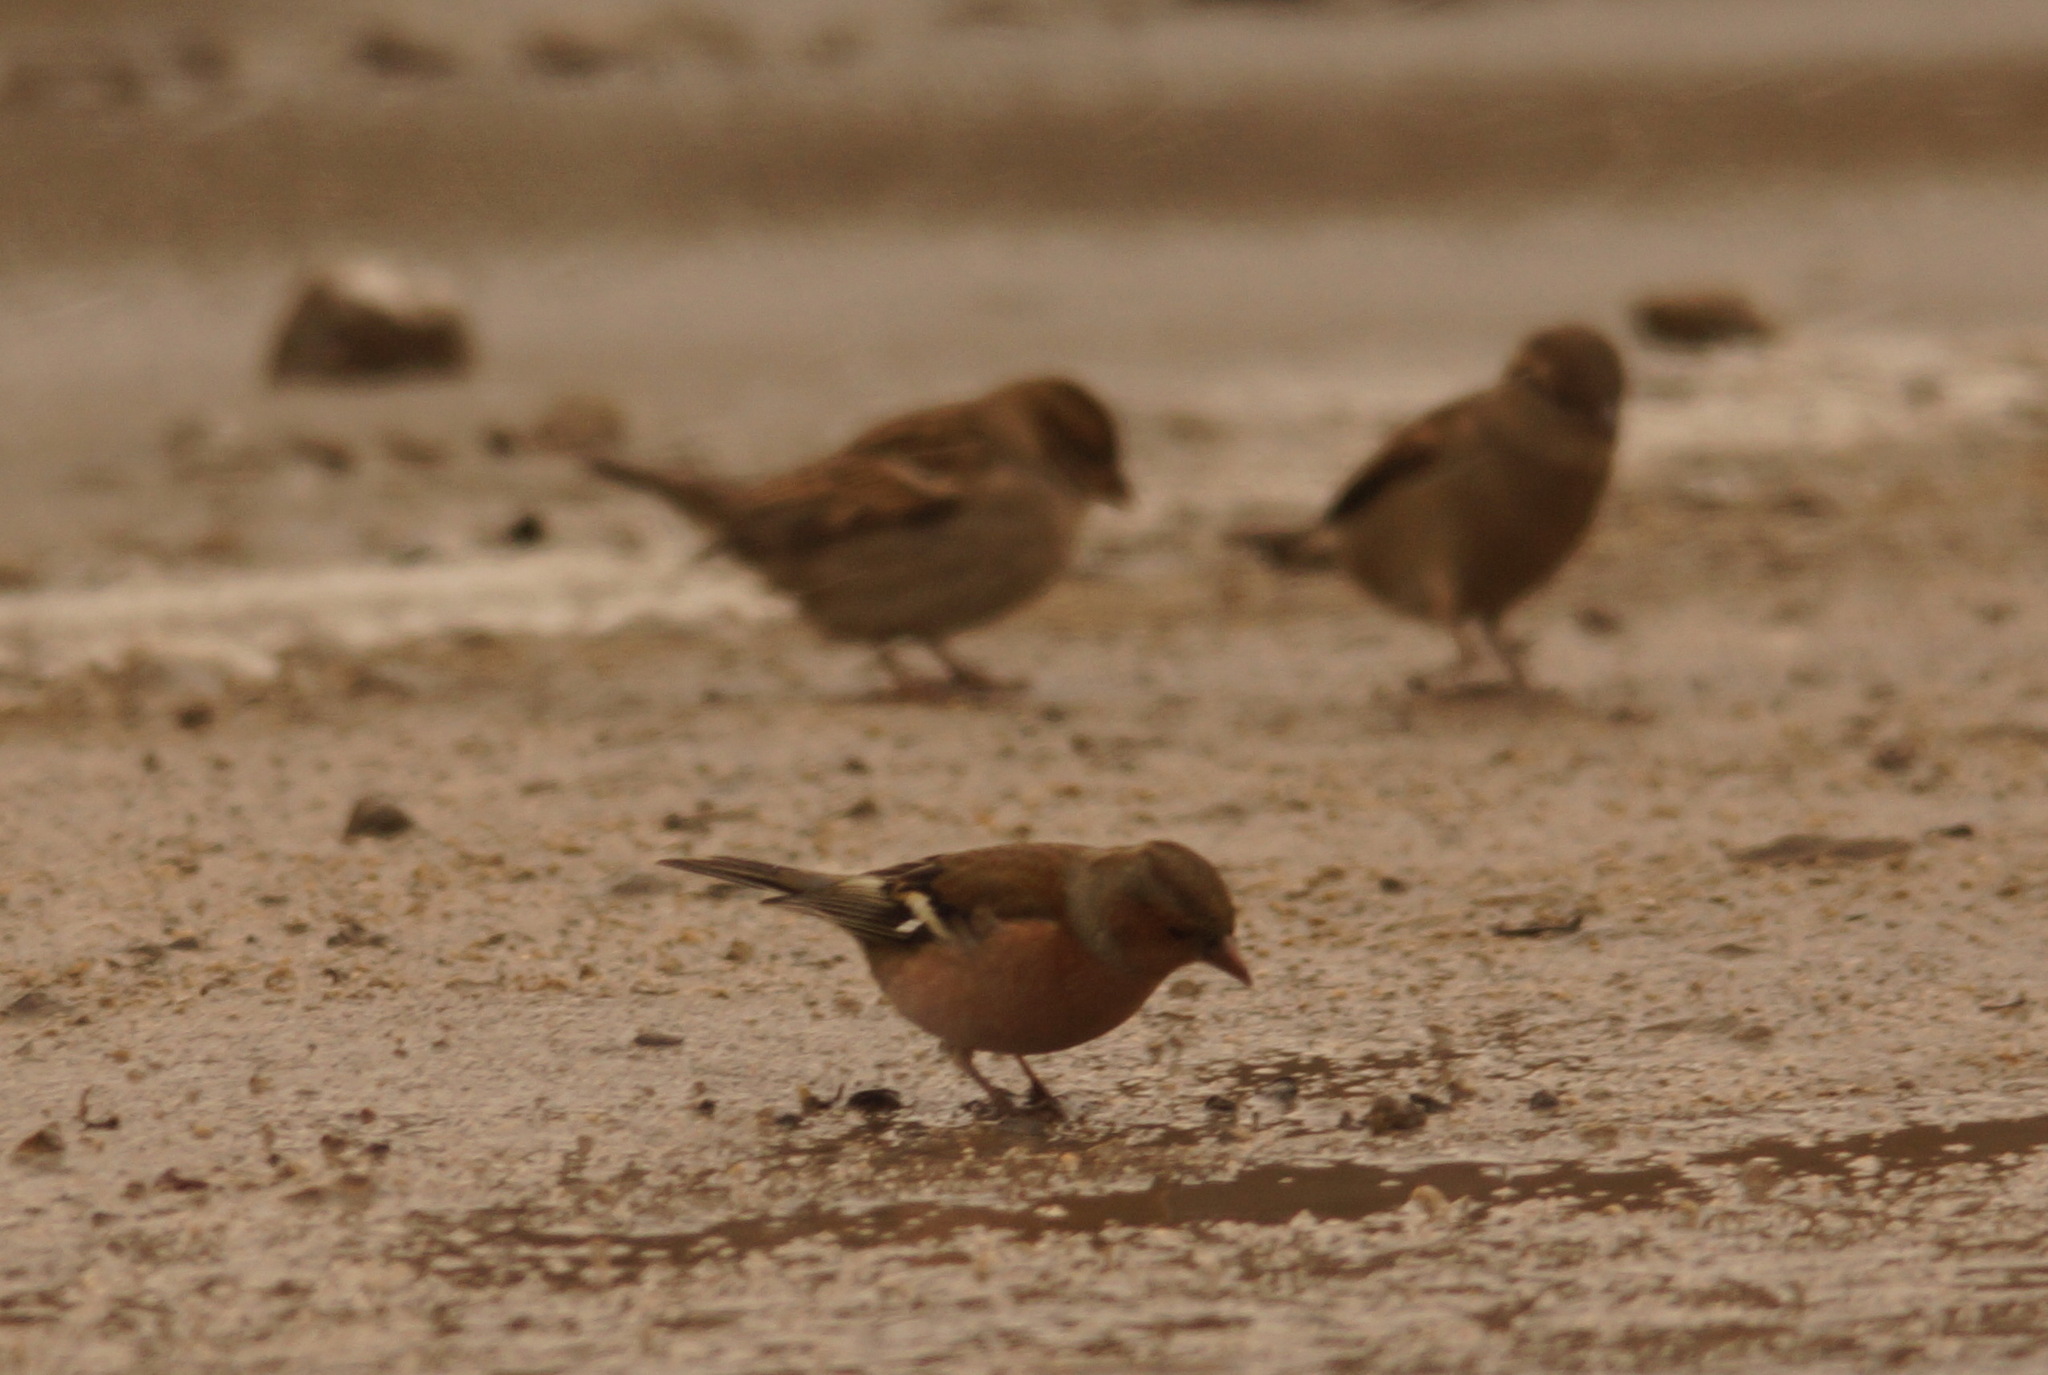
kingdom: Animalia
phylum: Chordata
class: Aves
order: Passeriformes
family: Fringillidae
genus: Fringilla
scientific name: Fringilla coelebs
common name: Common chaffinch
